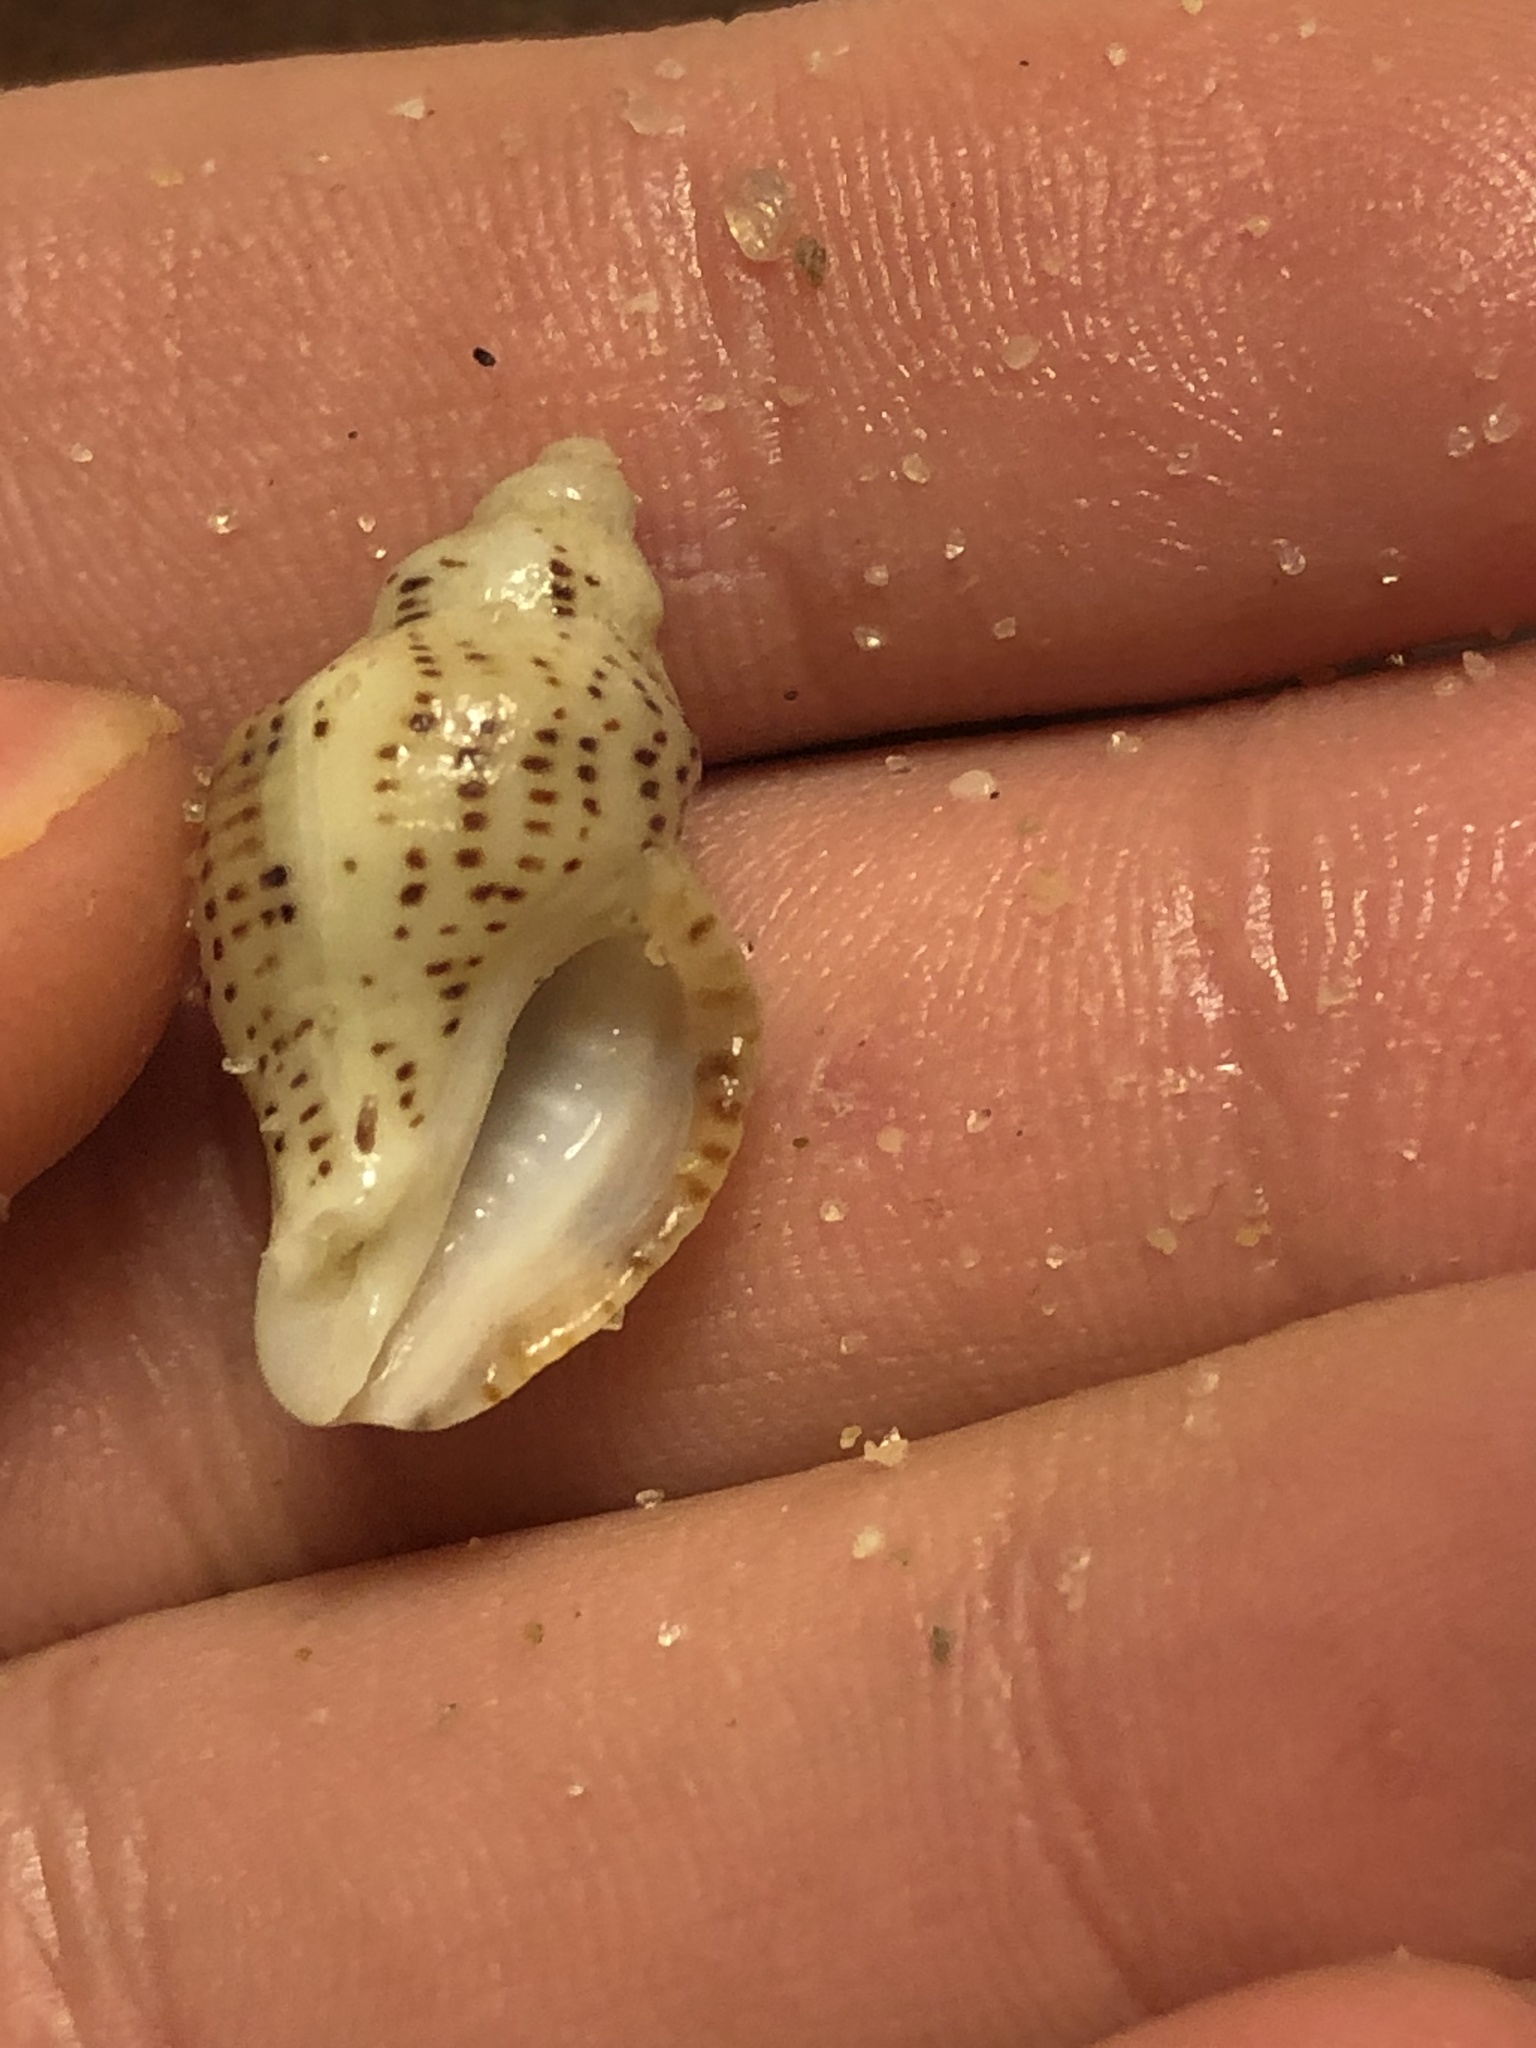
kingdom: Animalia
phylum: Mollusca
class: Gastropoda
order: Neogastropoda
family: Muricidae
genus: Acanthinucella
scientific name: Acanthinucella spirata
